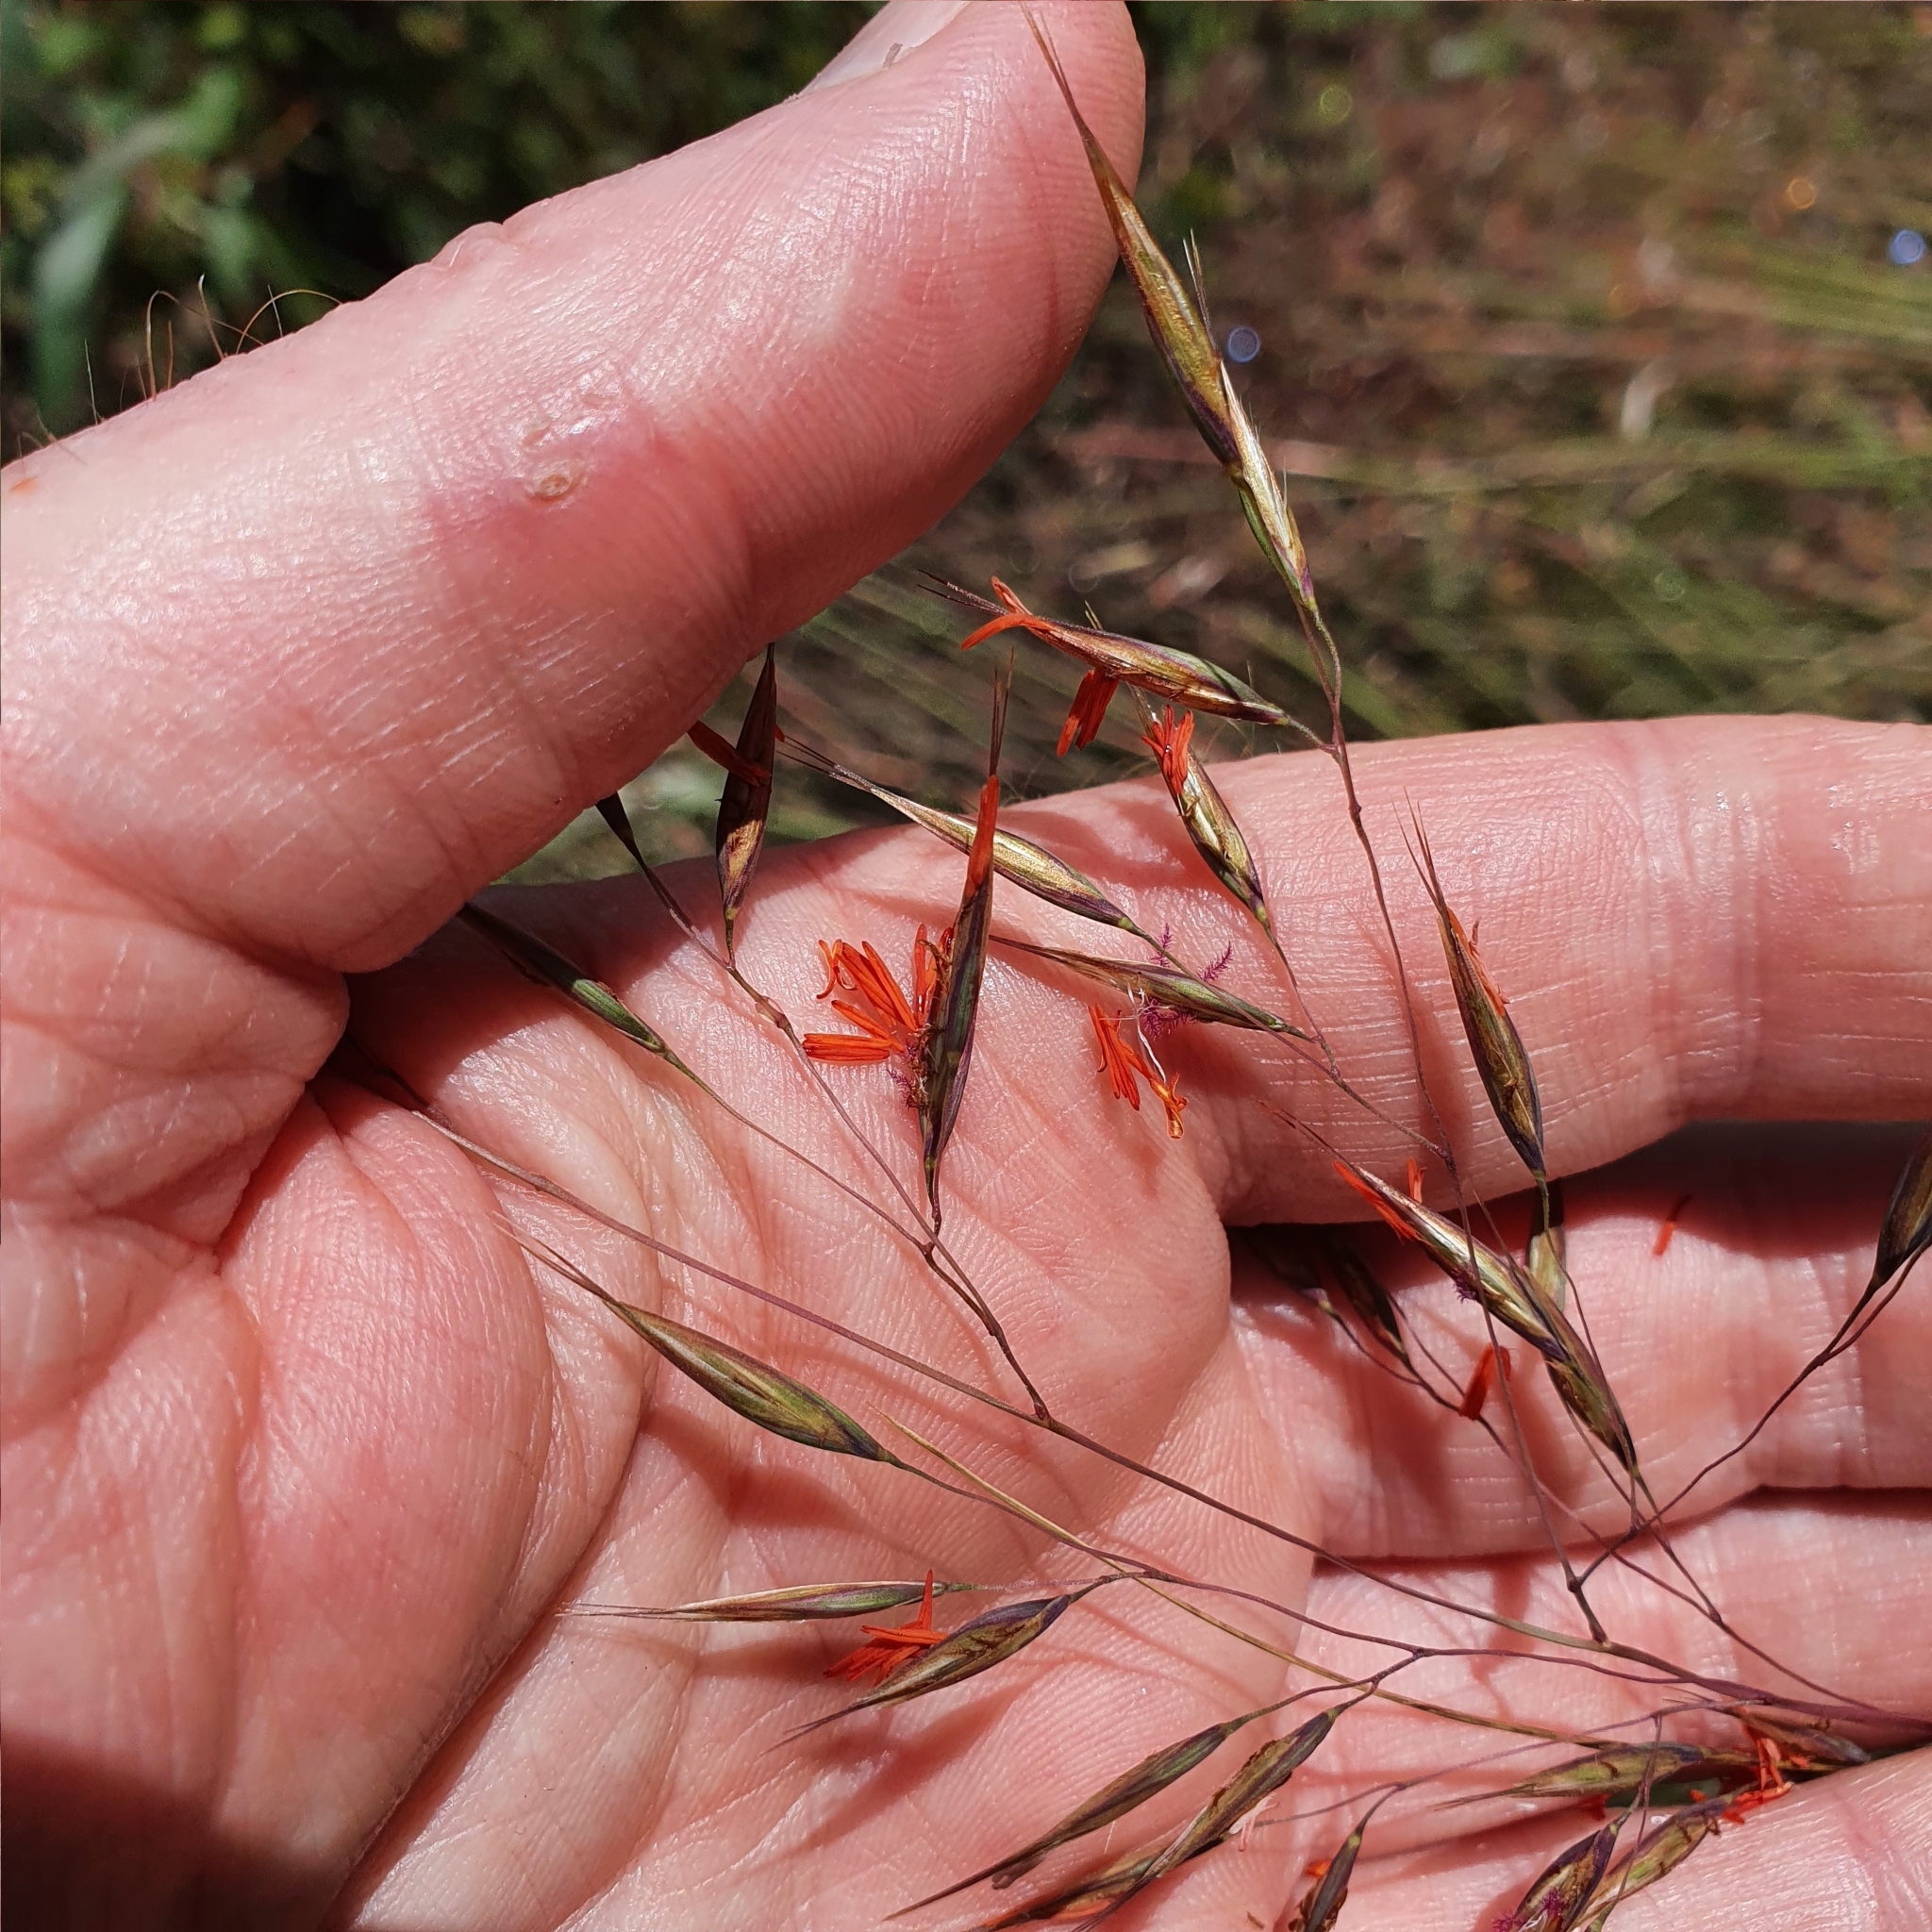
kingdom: Plantae
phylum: Tracheophyta
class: Liliopsida
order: Poales
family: Poaceae
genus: Rytidosperma
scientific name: Rytidosperma pallidum
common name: Red-anther wallaby grass
